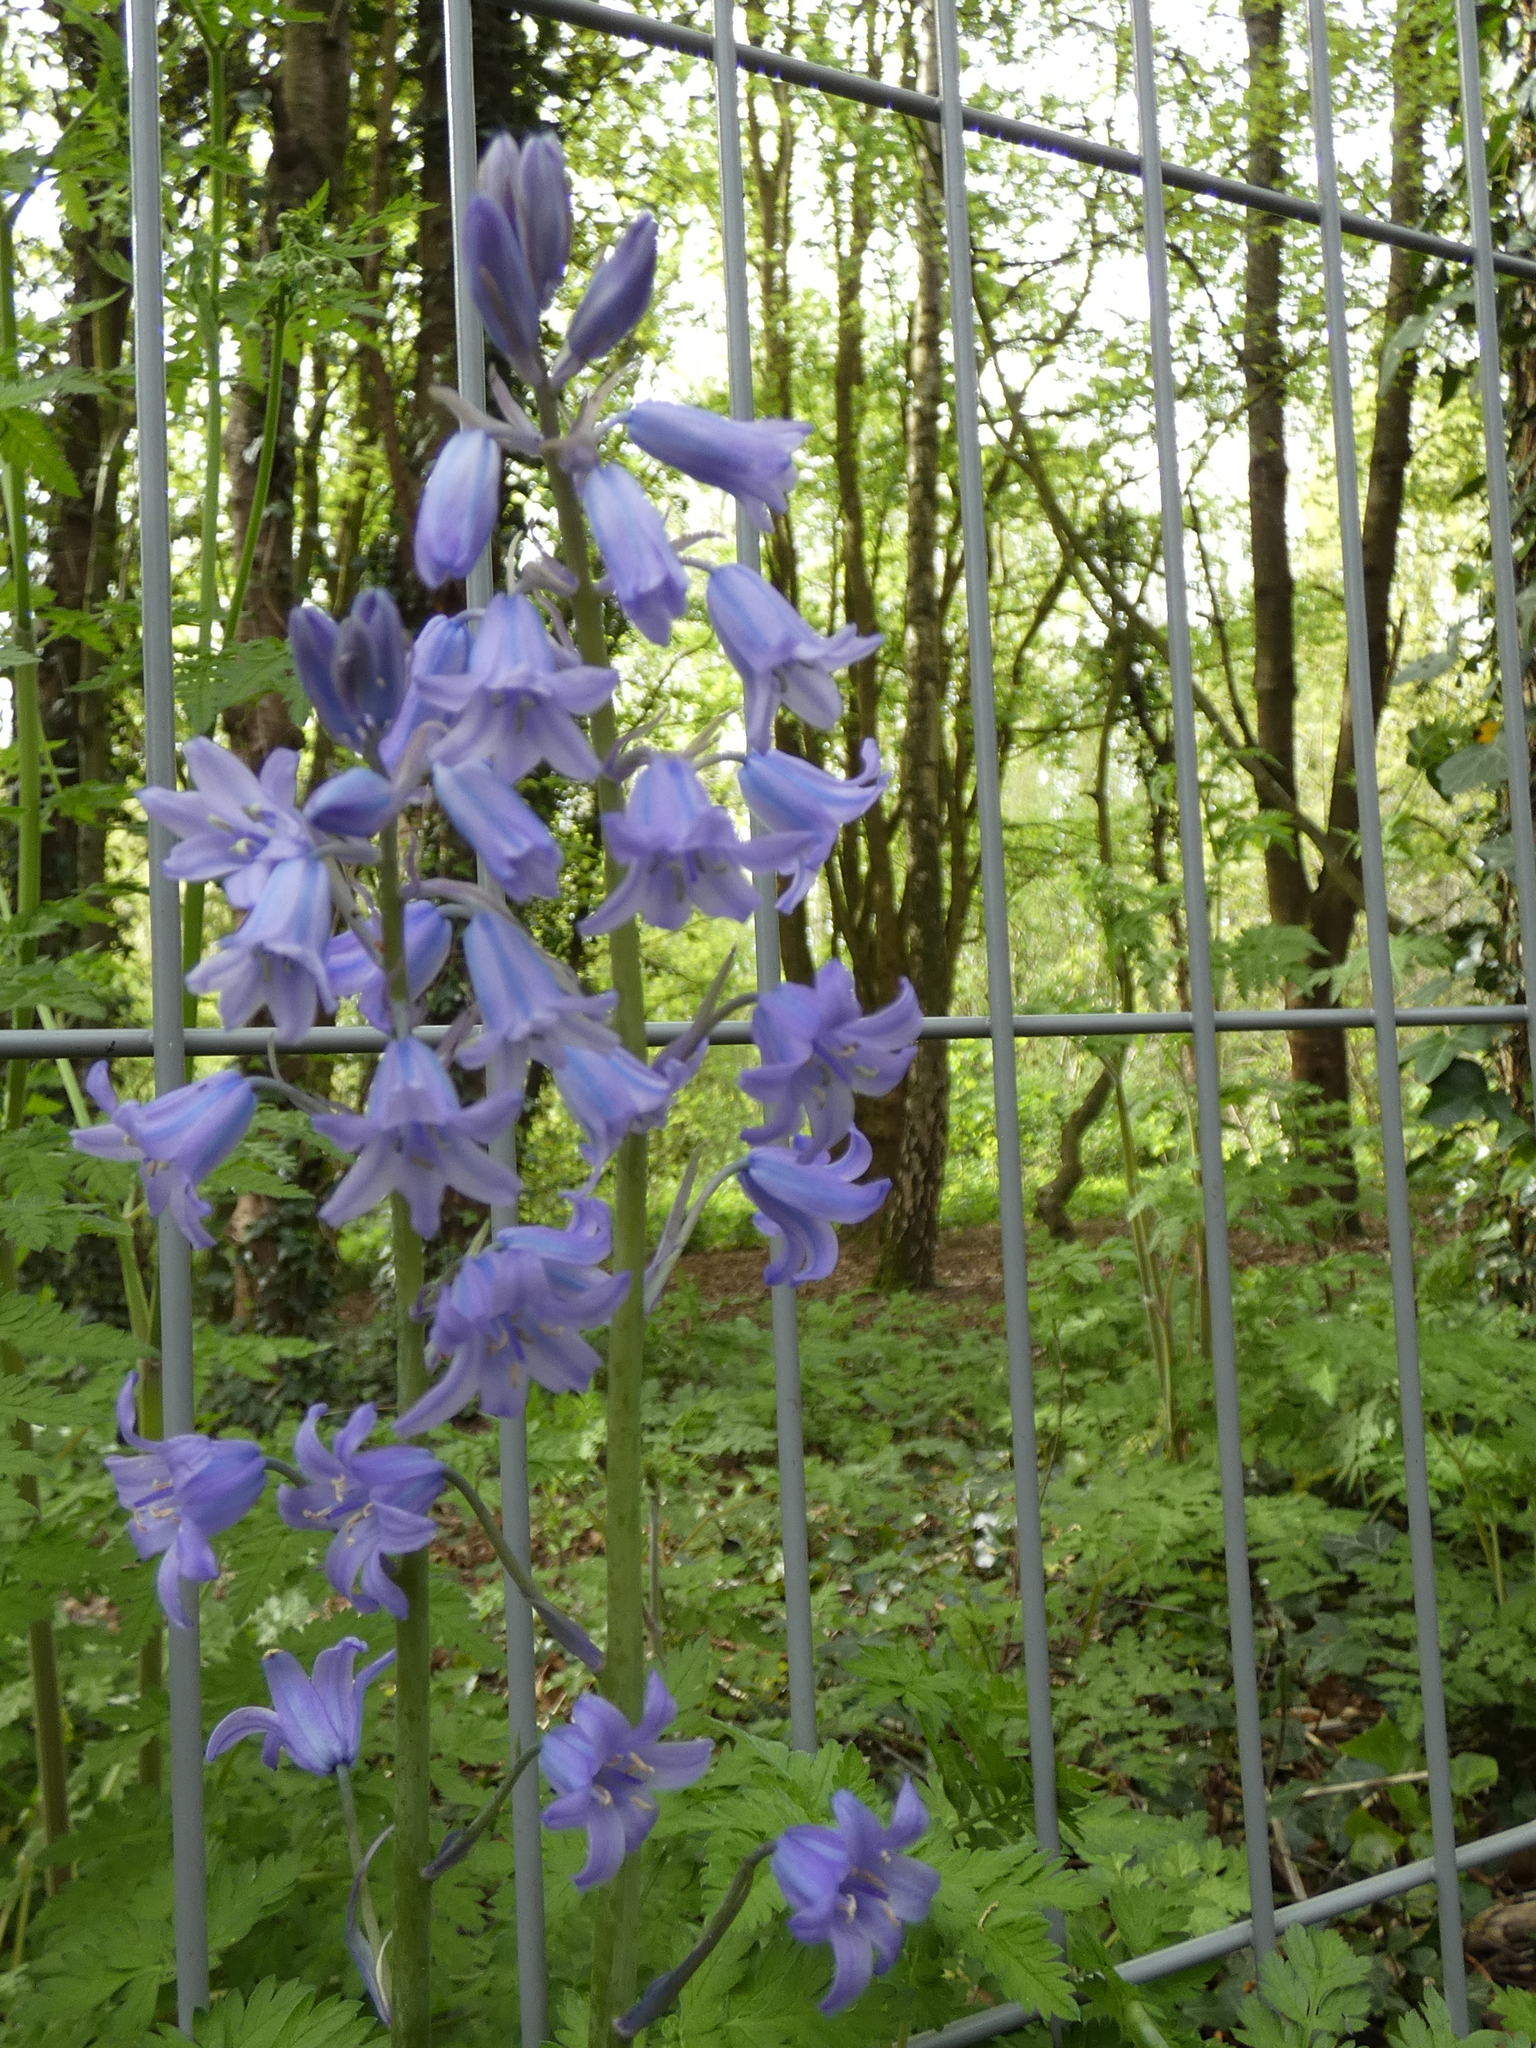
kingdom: Plantae
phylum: Tracheophyta
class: Liliopsida
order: Asparagales
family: Asparagaceae
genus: Hyacinthoides
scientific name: Hyacinthoides hispanica
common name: Spanish bluebell
